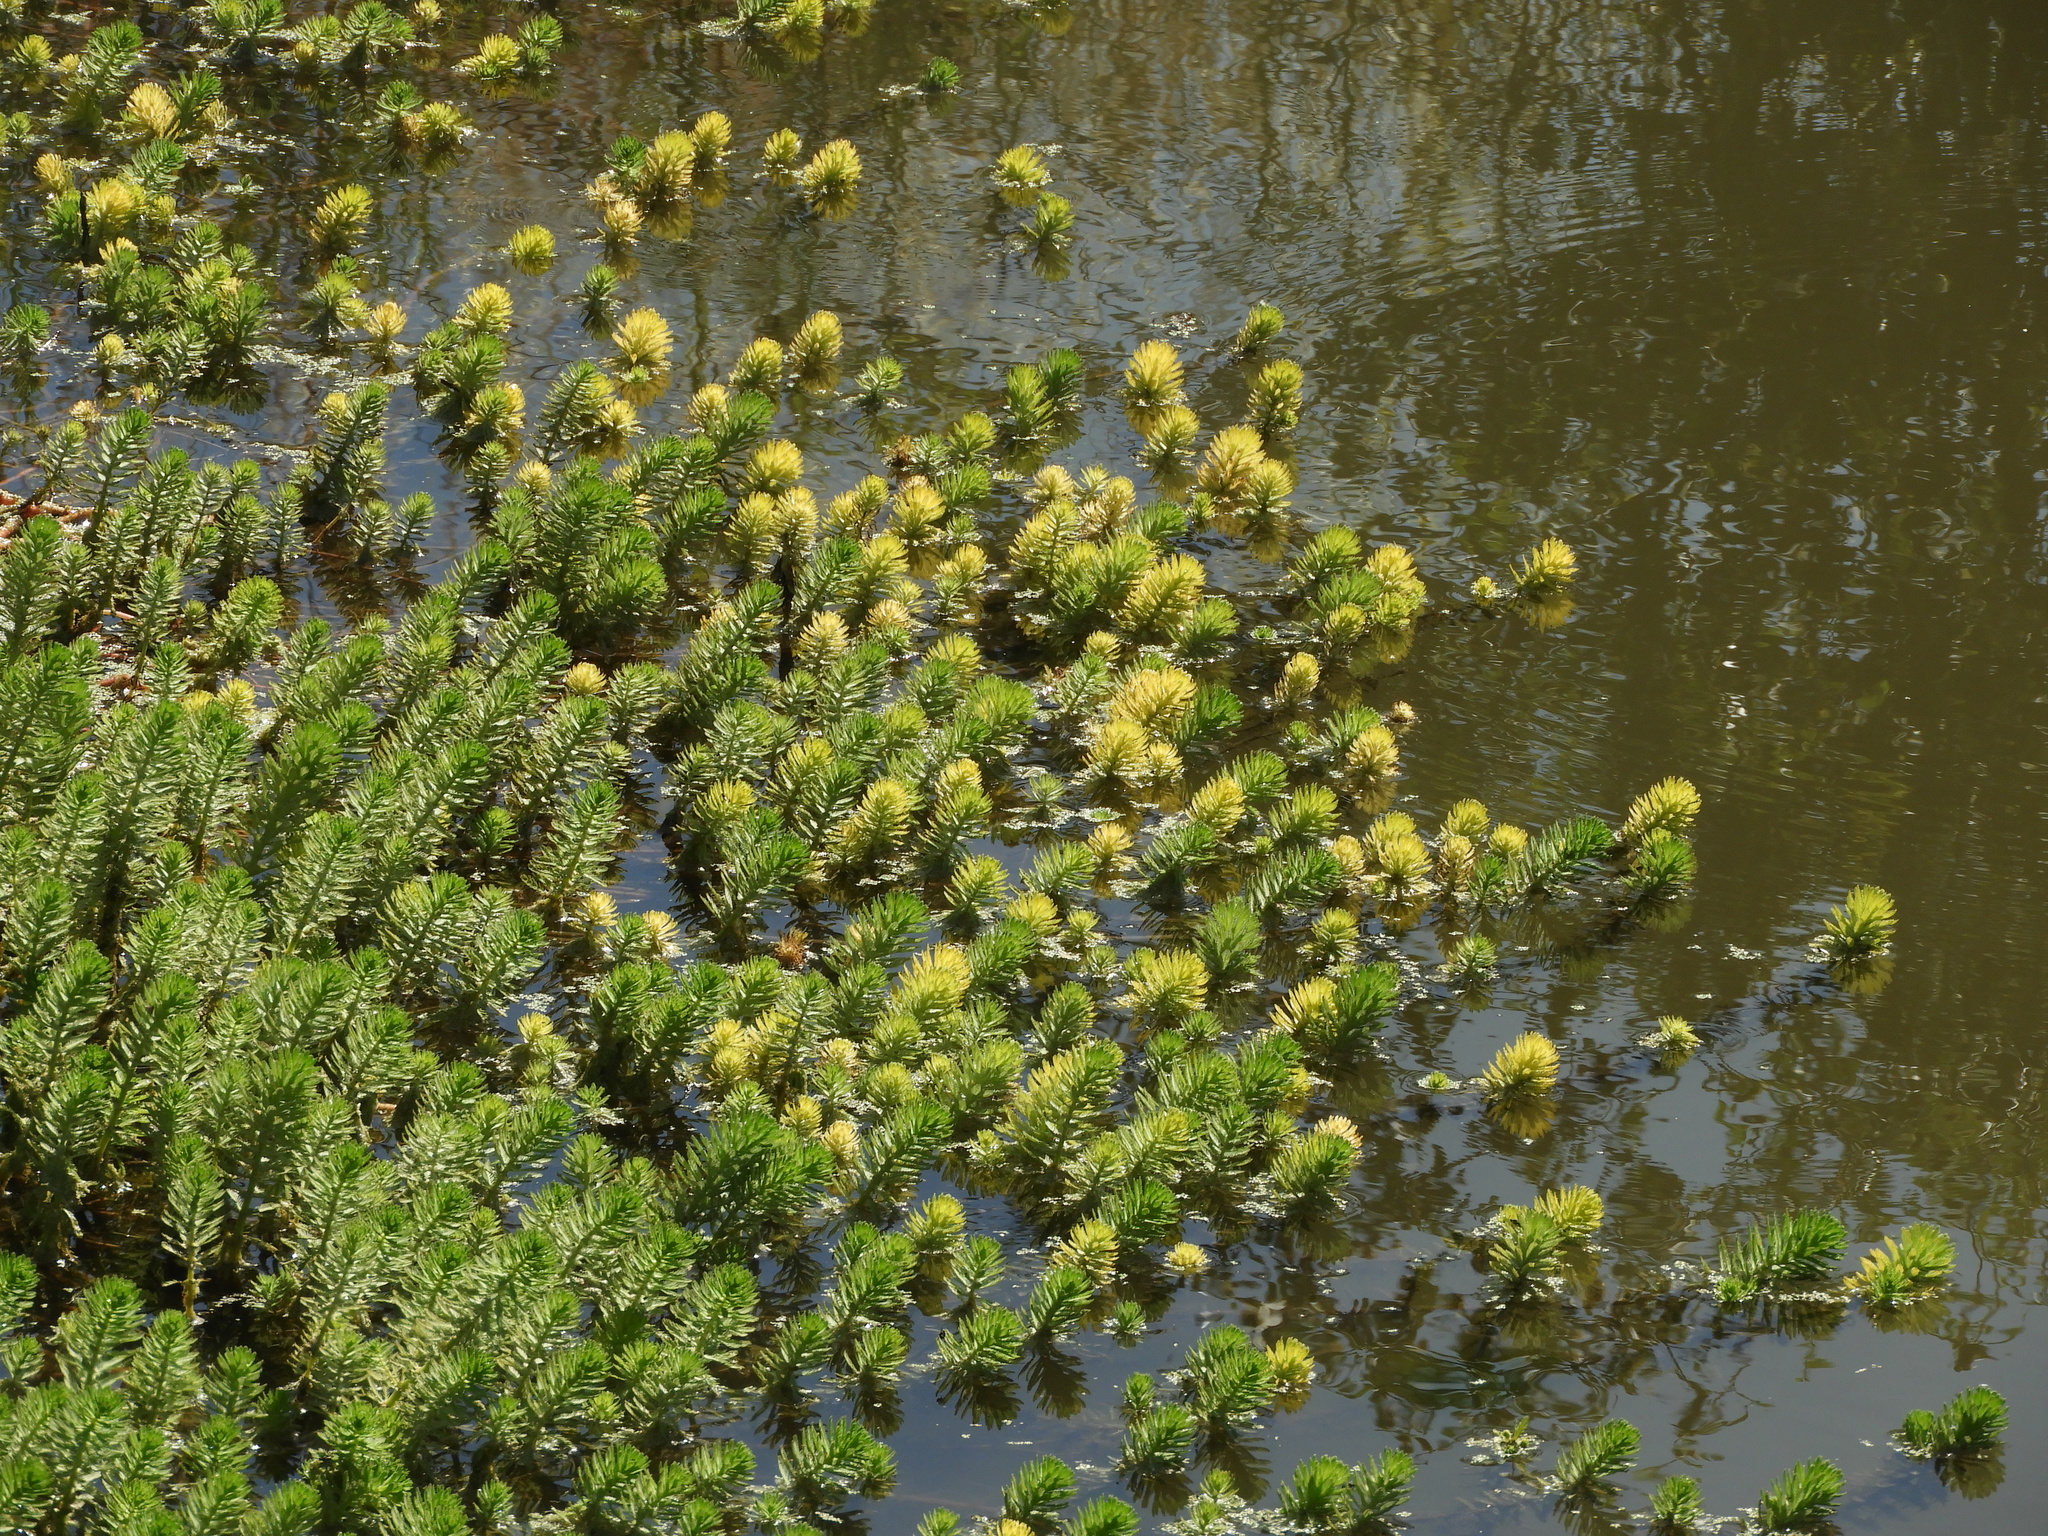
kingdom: Plantae
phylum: Tracheophyta
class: Magnoliopsida
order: Saxifragales
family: Haloragaceae
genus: Myriophyllum
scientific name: Myriophyllum aquaticum
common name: Parrot's feather
